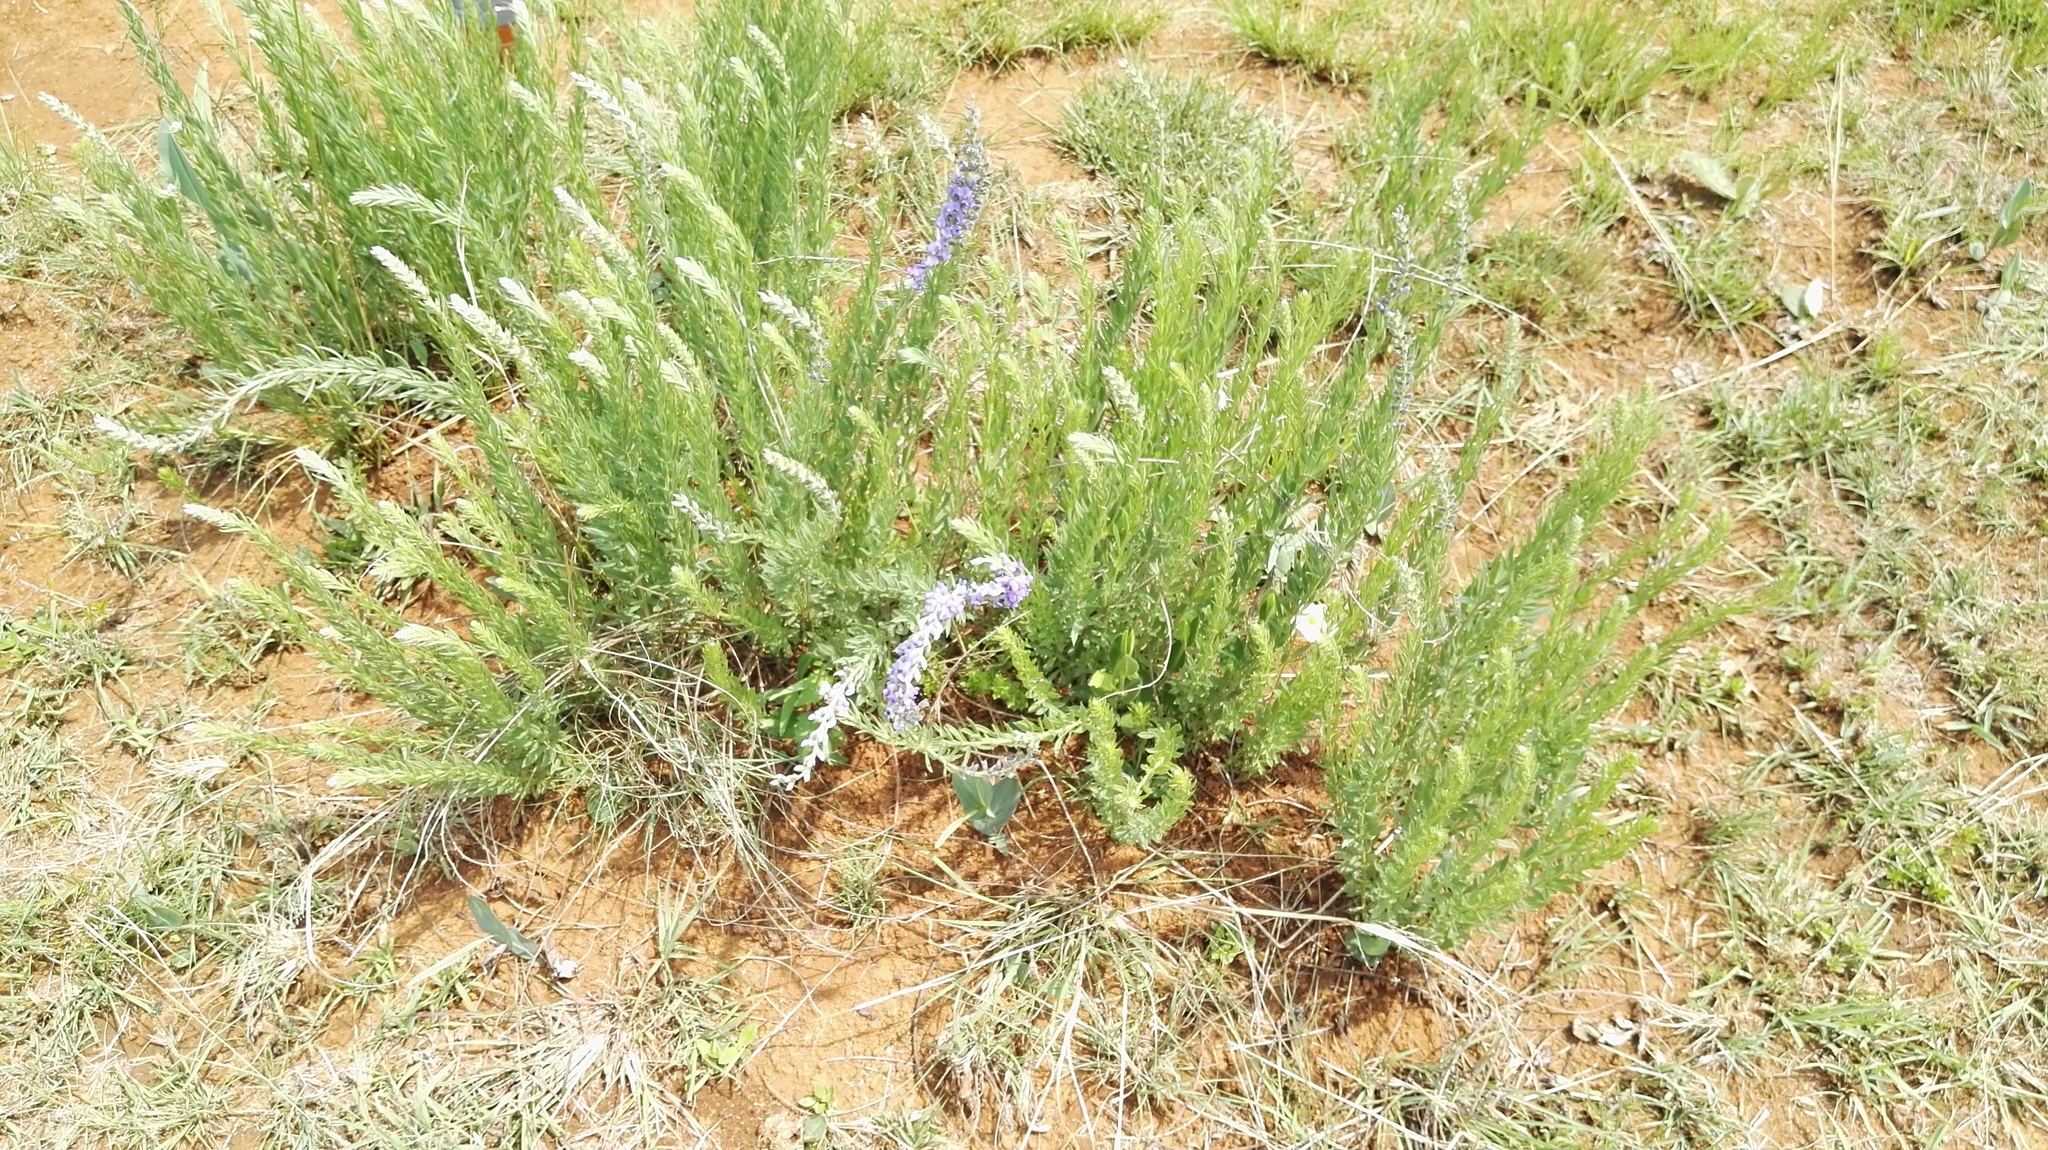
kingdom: Plantae
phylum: Tracheophyta
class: Magnoliopsida
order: Fabales
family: Fabaceae
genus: Lotononis
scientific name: Lotononis amajubica
